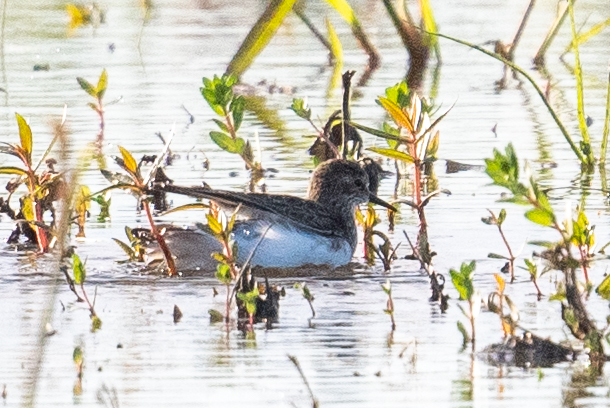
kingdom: Animalia
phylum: Chordata
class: Aves
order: Charadriiformes
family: Scolopacidae
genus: Calidris
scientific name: Calidris minutilla
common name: Least sandpiper
